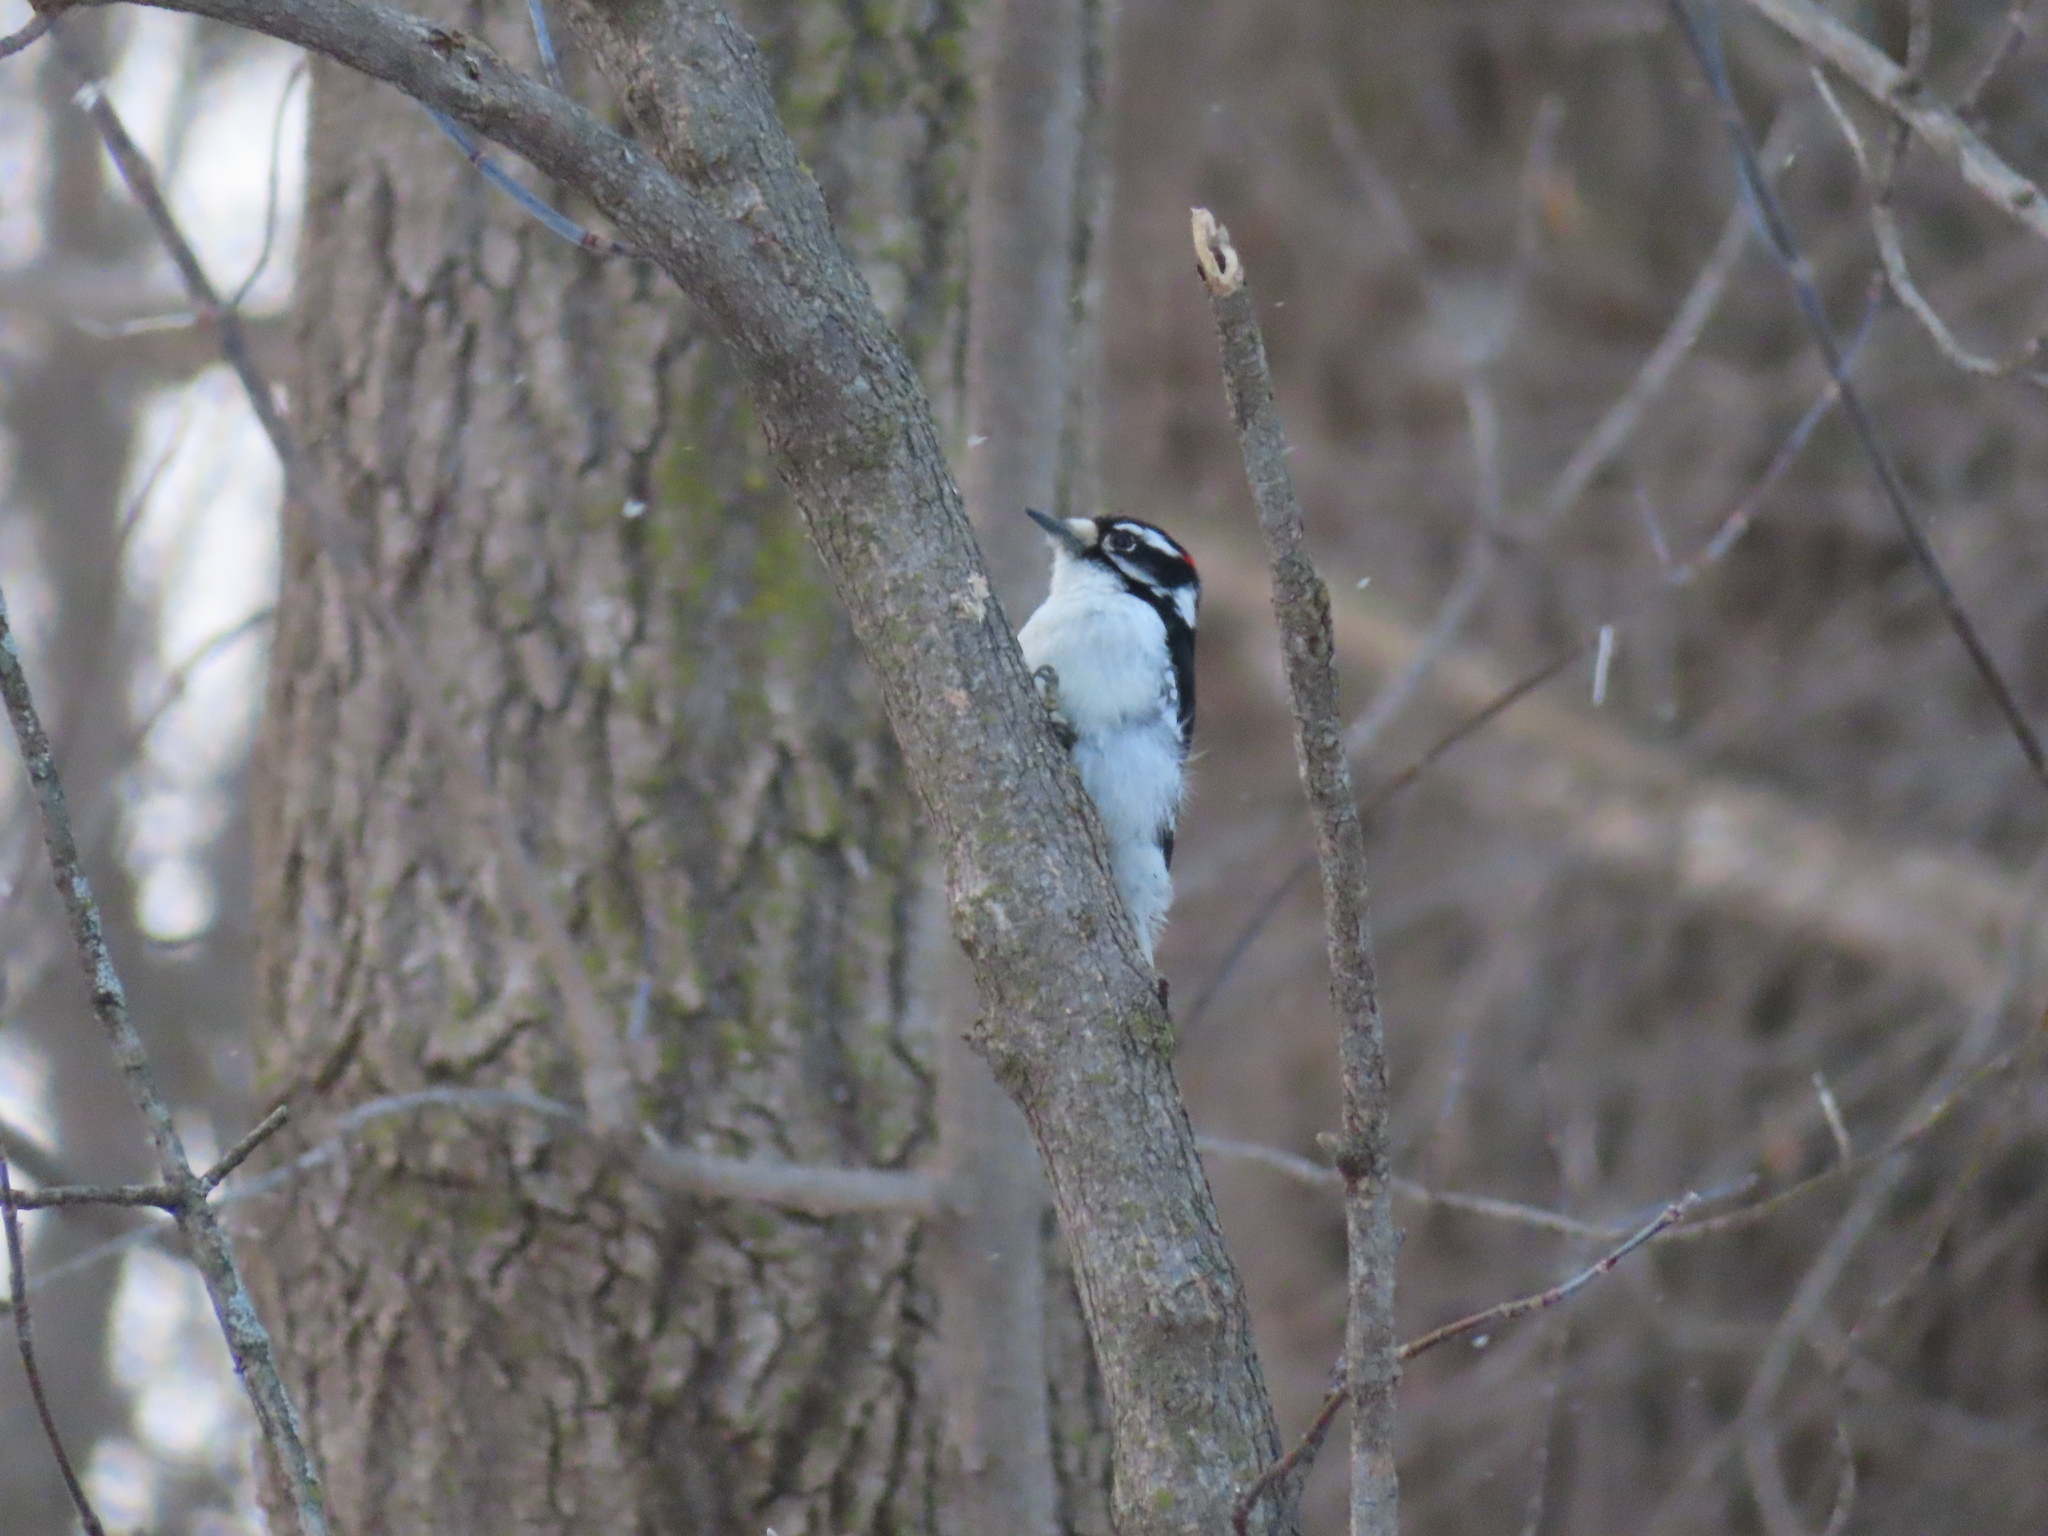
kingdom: Animalia
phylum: Chordata
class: Aves
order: Piciformes
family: Picidae
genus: Dryobates
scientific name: Dryobates pubescens
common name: Downy woodpecker
